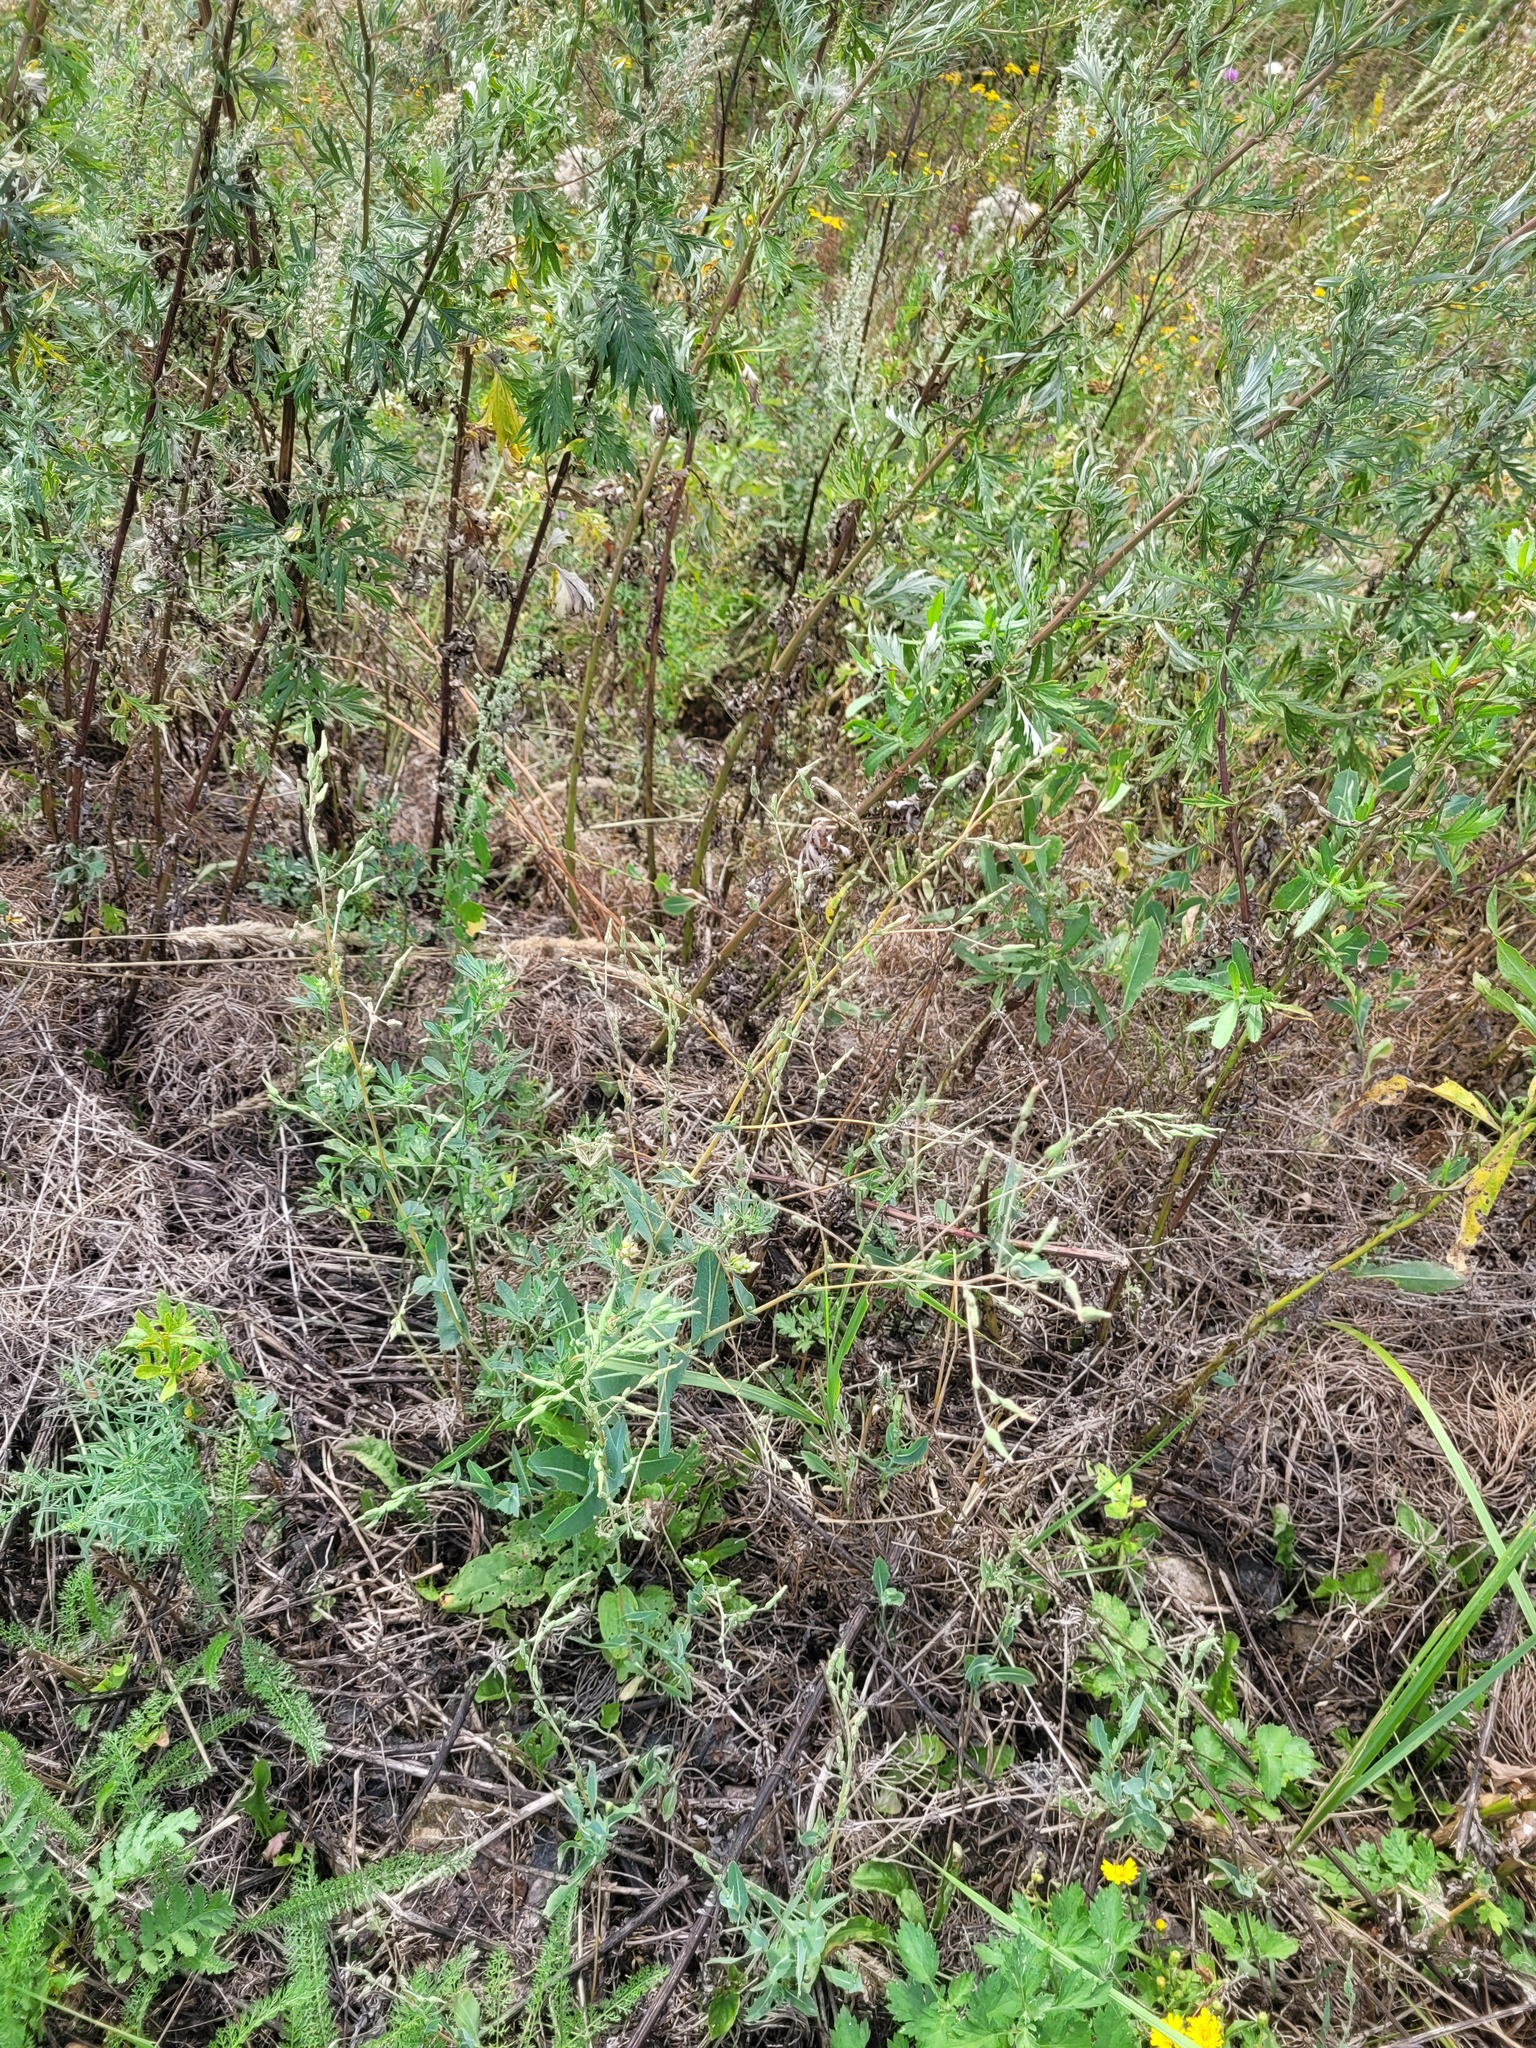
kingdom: Plantae
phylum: Tracheophyta
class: Magnoliopsida
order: Asterales
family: Asteraceae
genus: Lactuca
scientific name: Lactuca serriola
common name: Prickly lettuce
